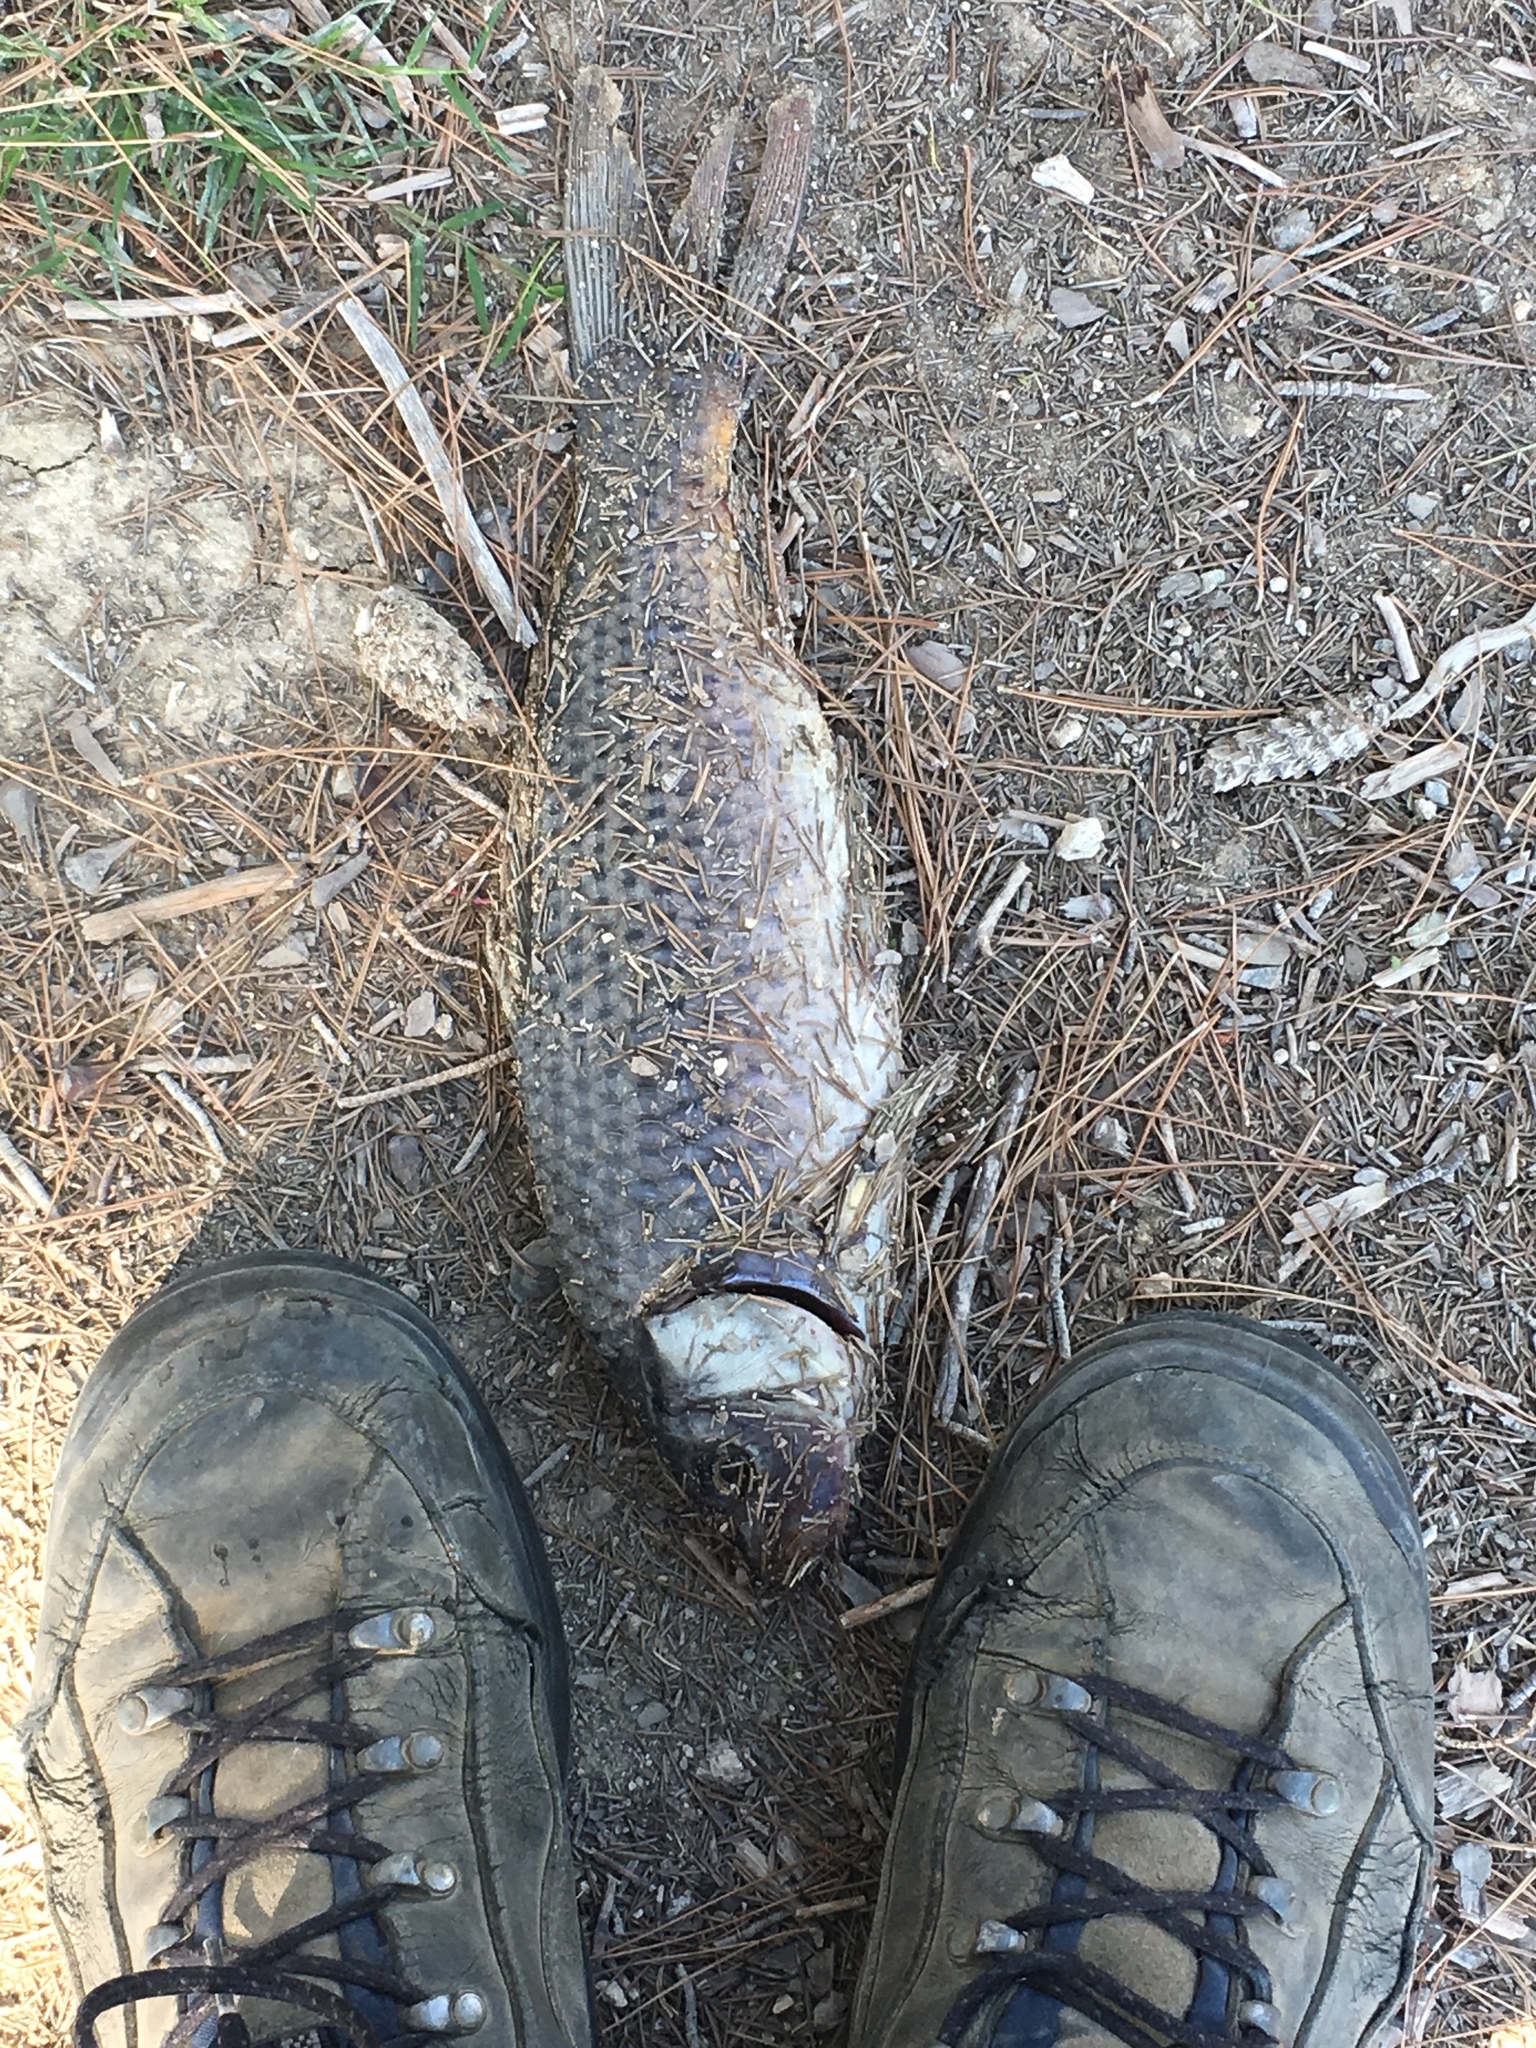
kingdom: Animalia
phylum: Chordata
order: Cypriniformes
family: Cyprinidae
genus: Cyprinus
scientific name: Cyprinus carpio
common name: Common carp
